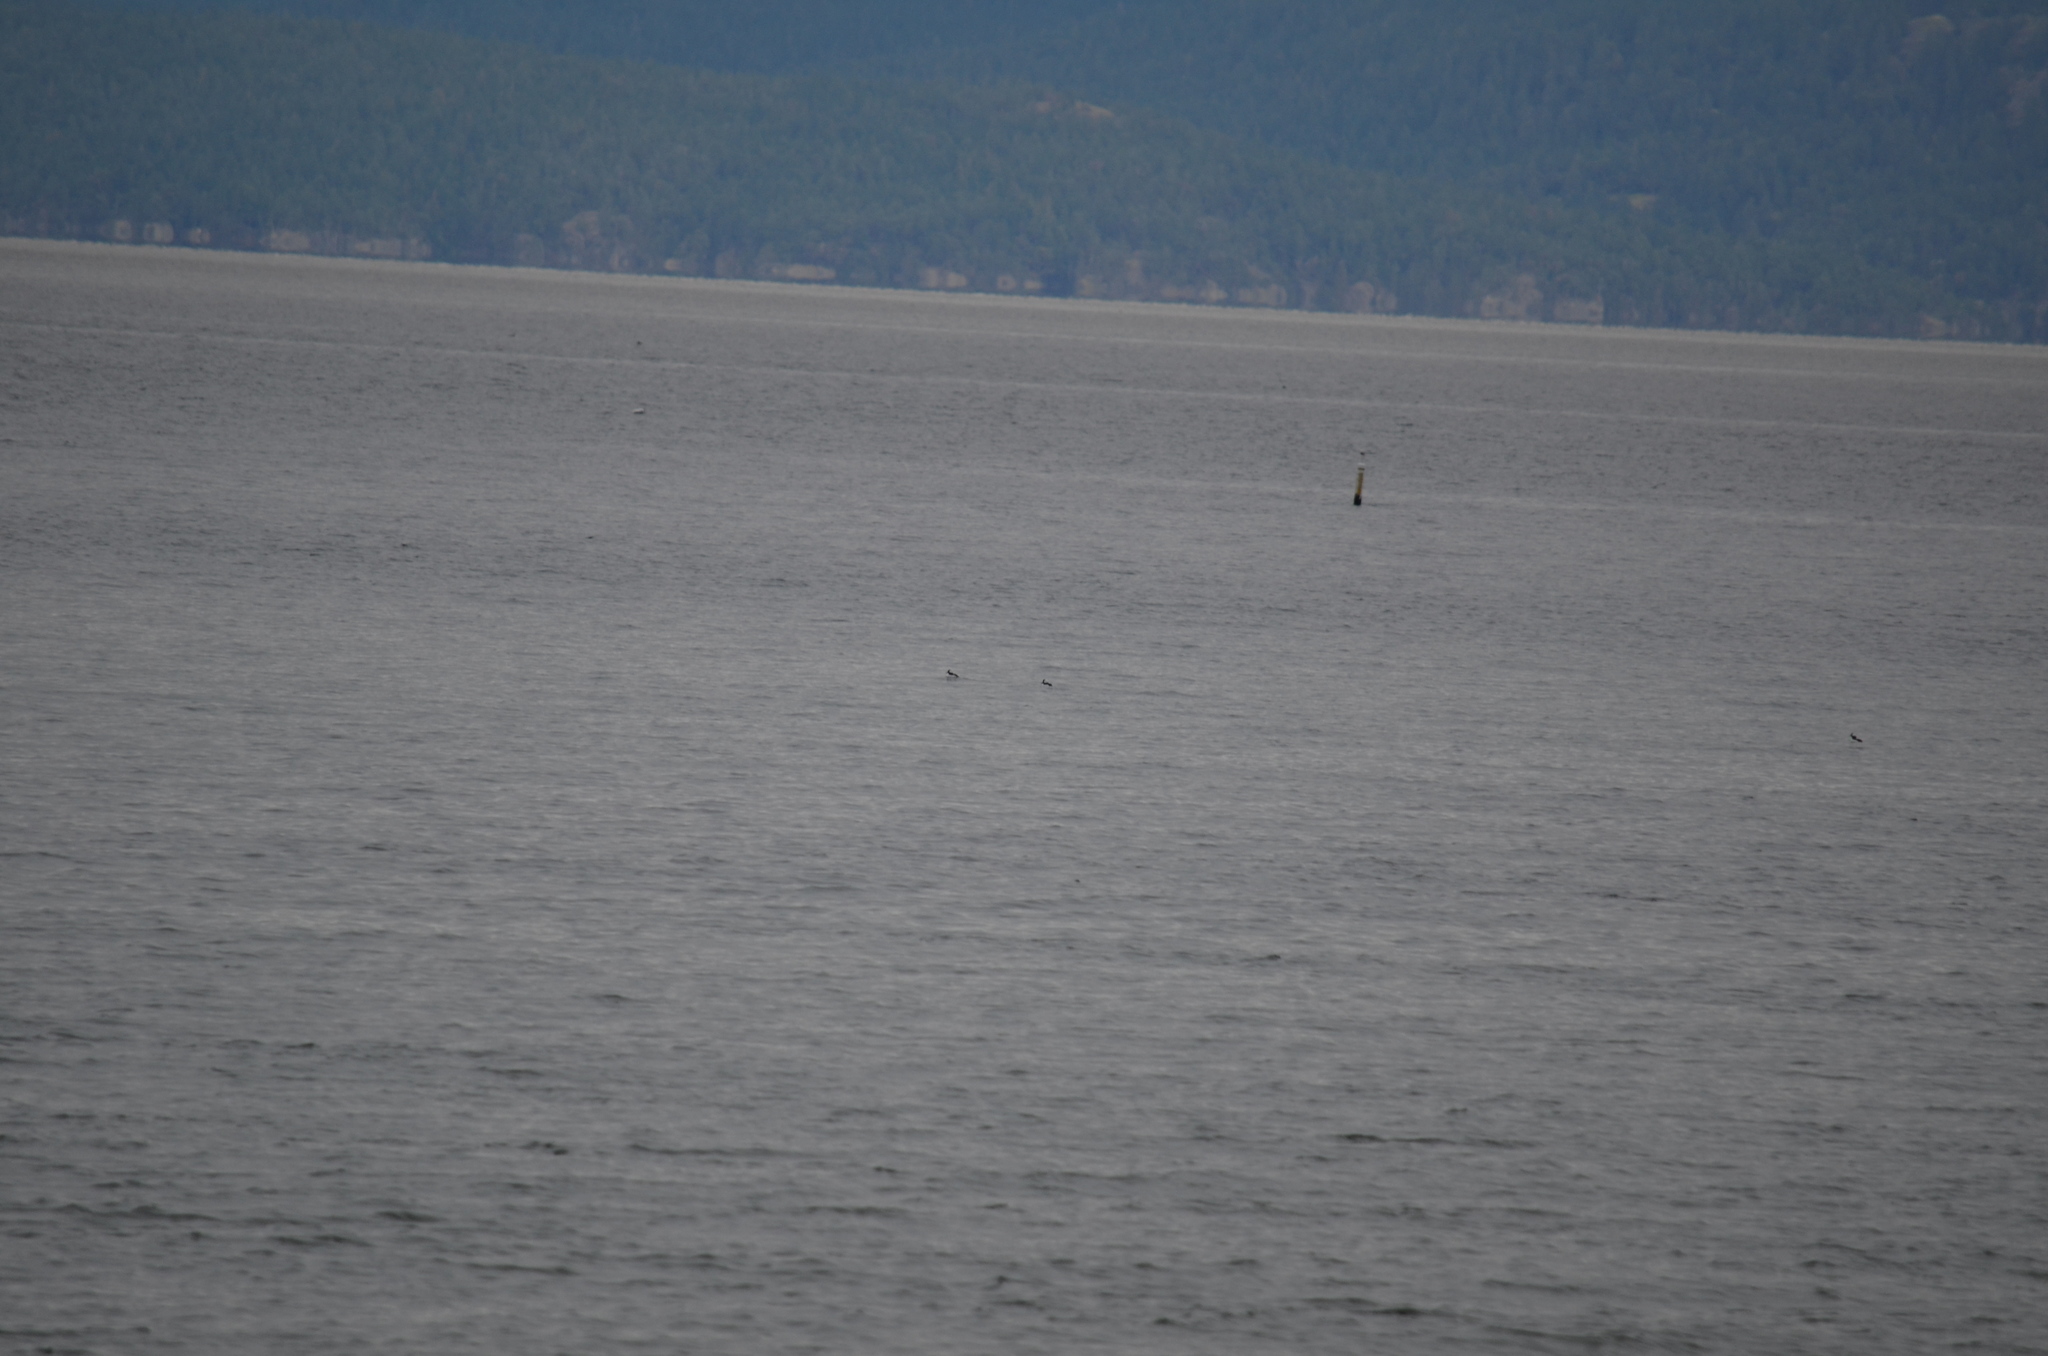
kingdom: Animalia
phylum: Chordata
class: Aves
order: Anseriformes
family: Anatidae
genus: Bucephala
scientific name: Bucephala albeola
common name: Bufflehead
